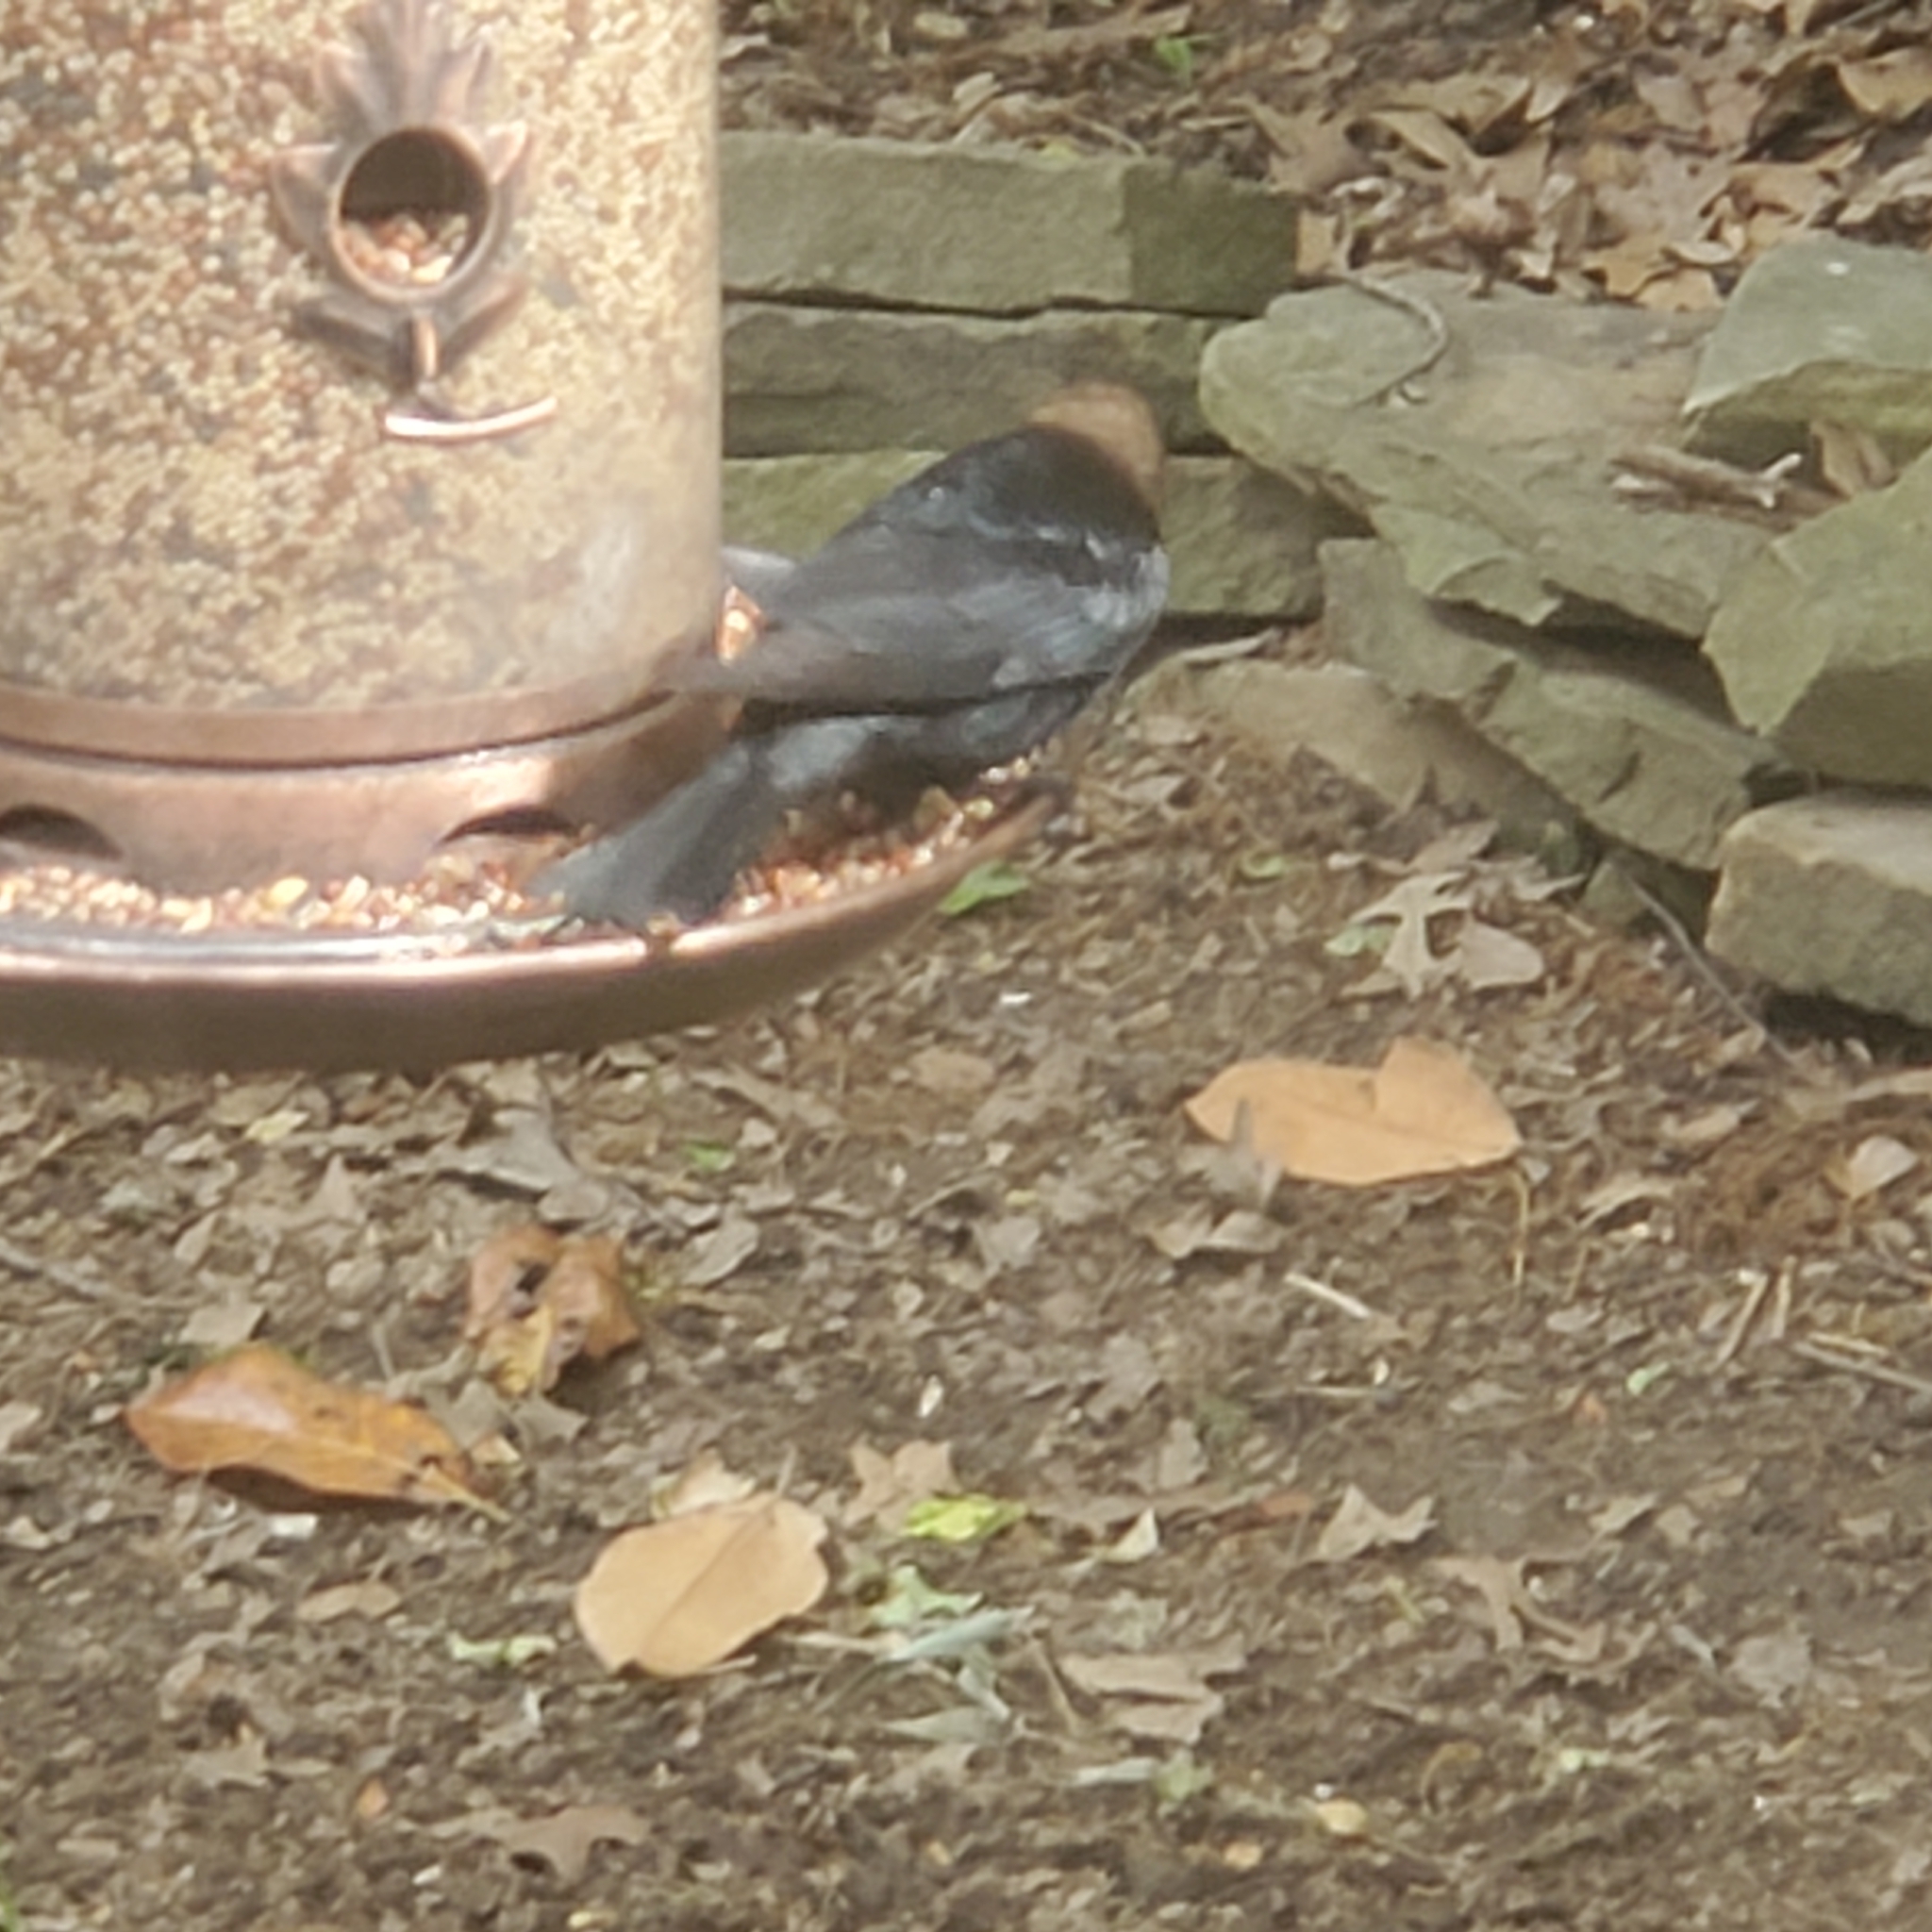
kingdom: Animalia
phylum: Chordata
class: Aves
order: Passeriformes
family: Icteridae
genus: Molothrus
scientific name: Molothrus ater
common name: Brown-headed cowbird
